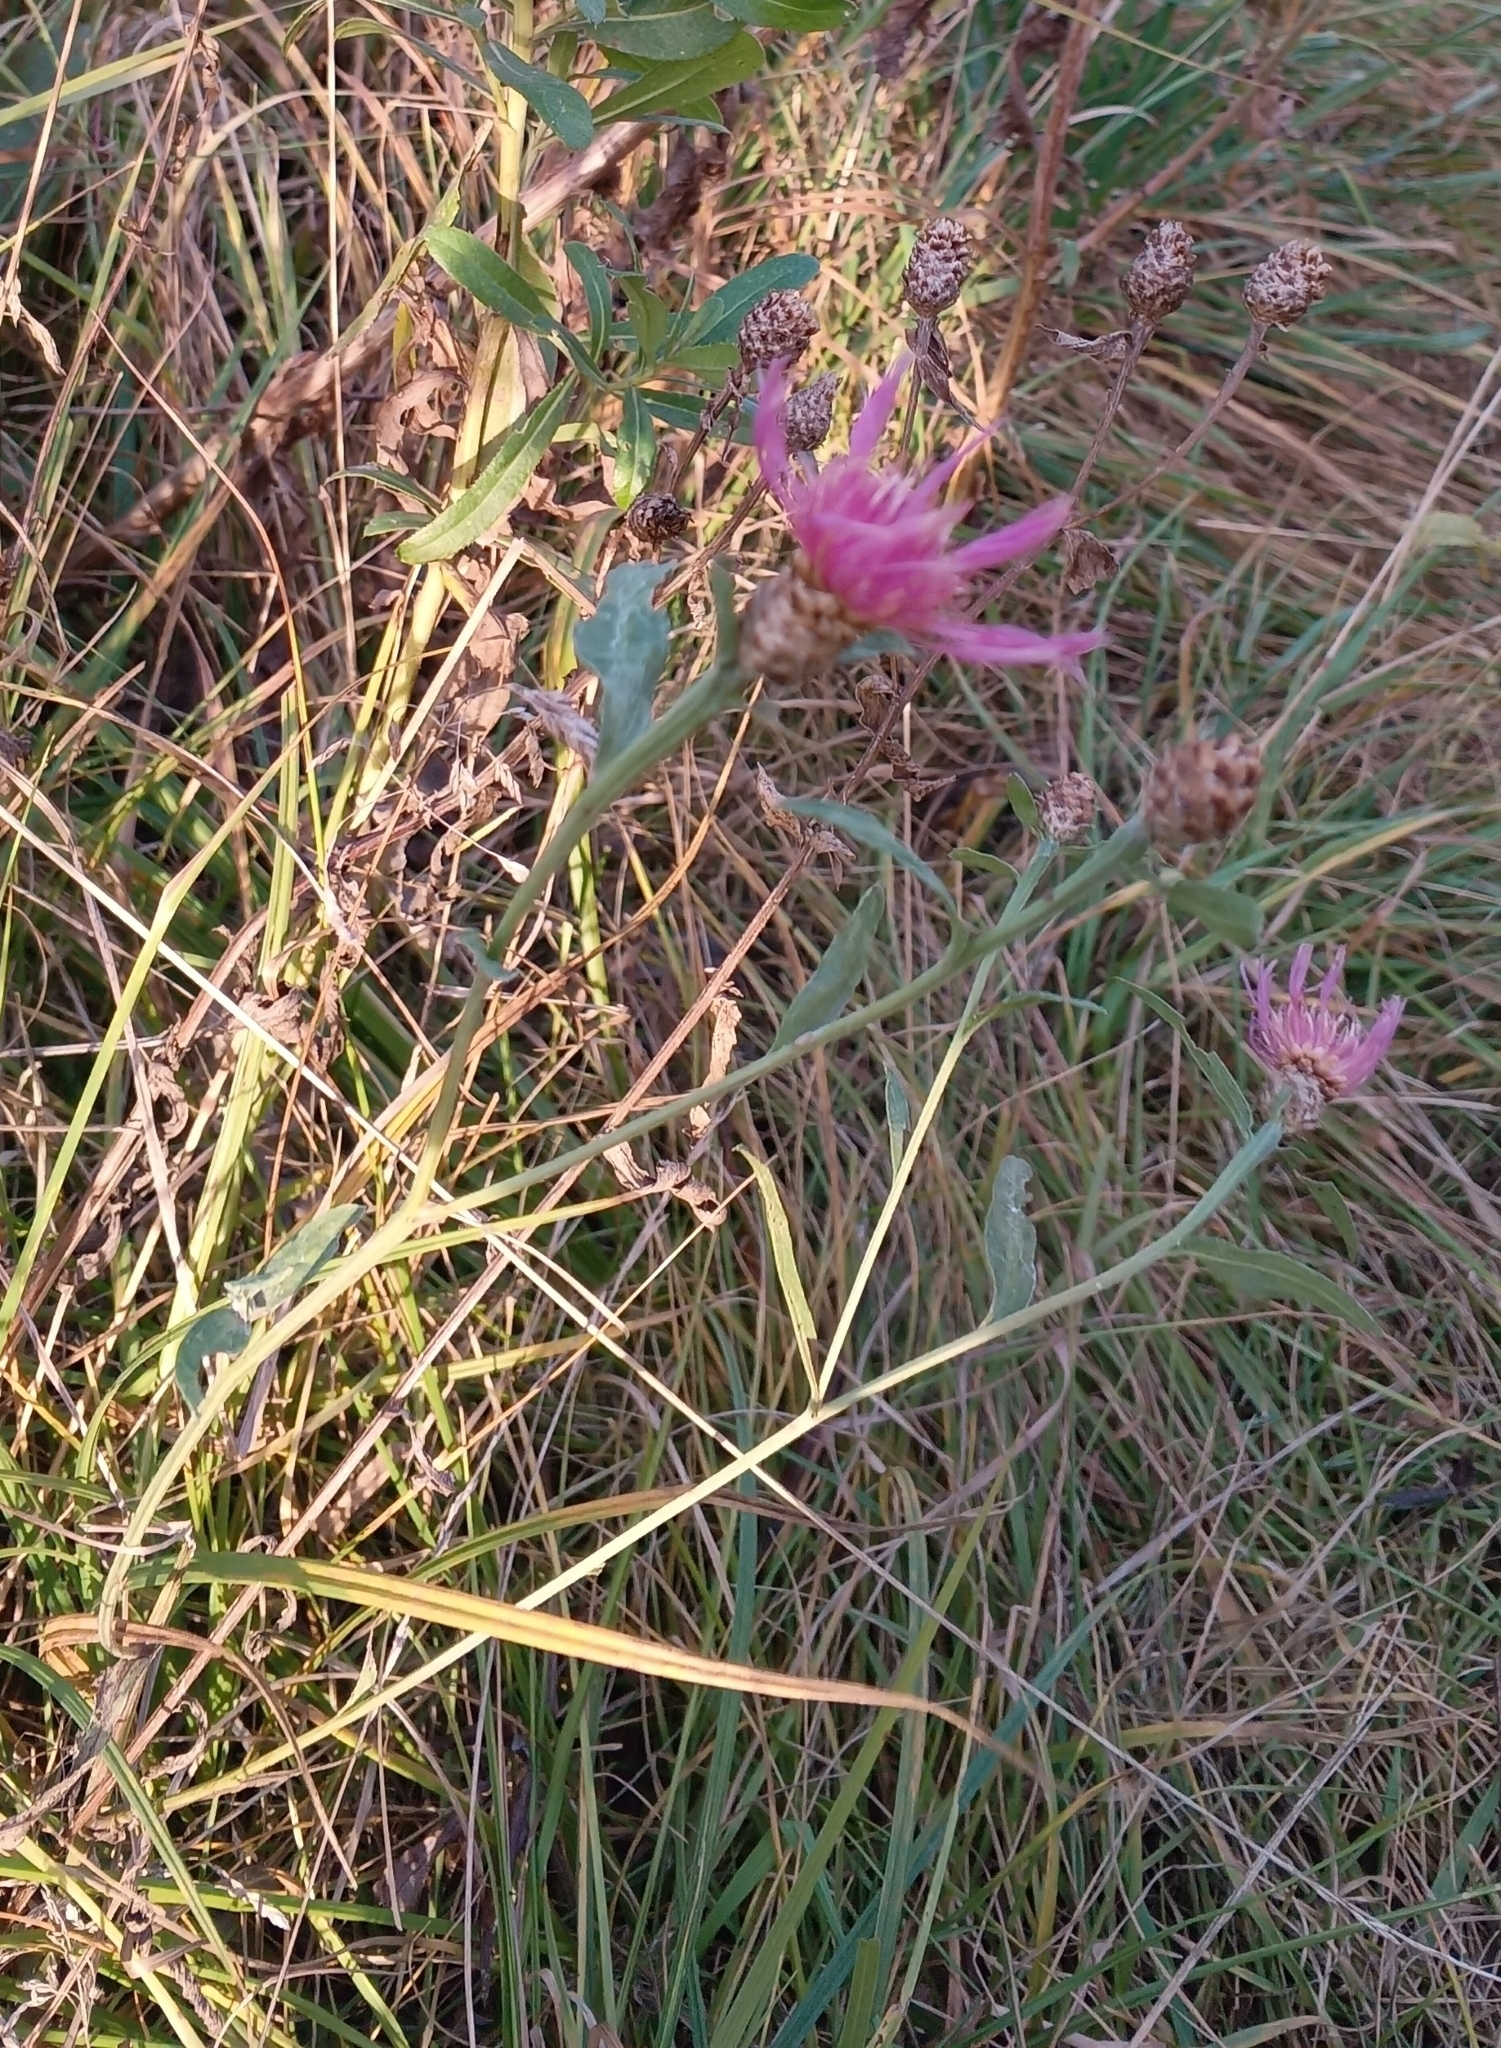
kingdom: Plantae
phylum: Tracheophyta
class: Magnoliopsida
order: Asterales
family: Asteraceae
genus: Centaurea
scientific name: Centaurea jacea
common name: Brown knapweed
